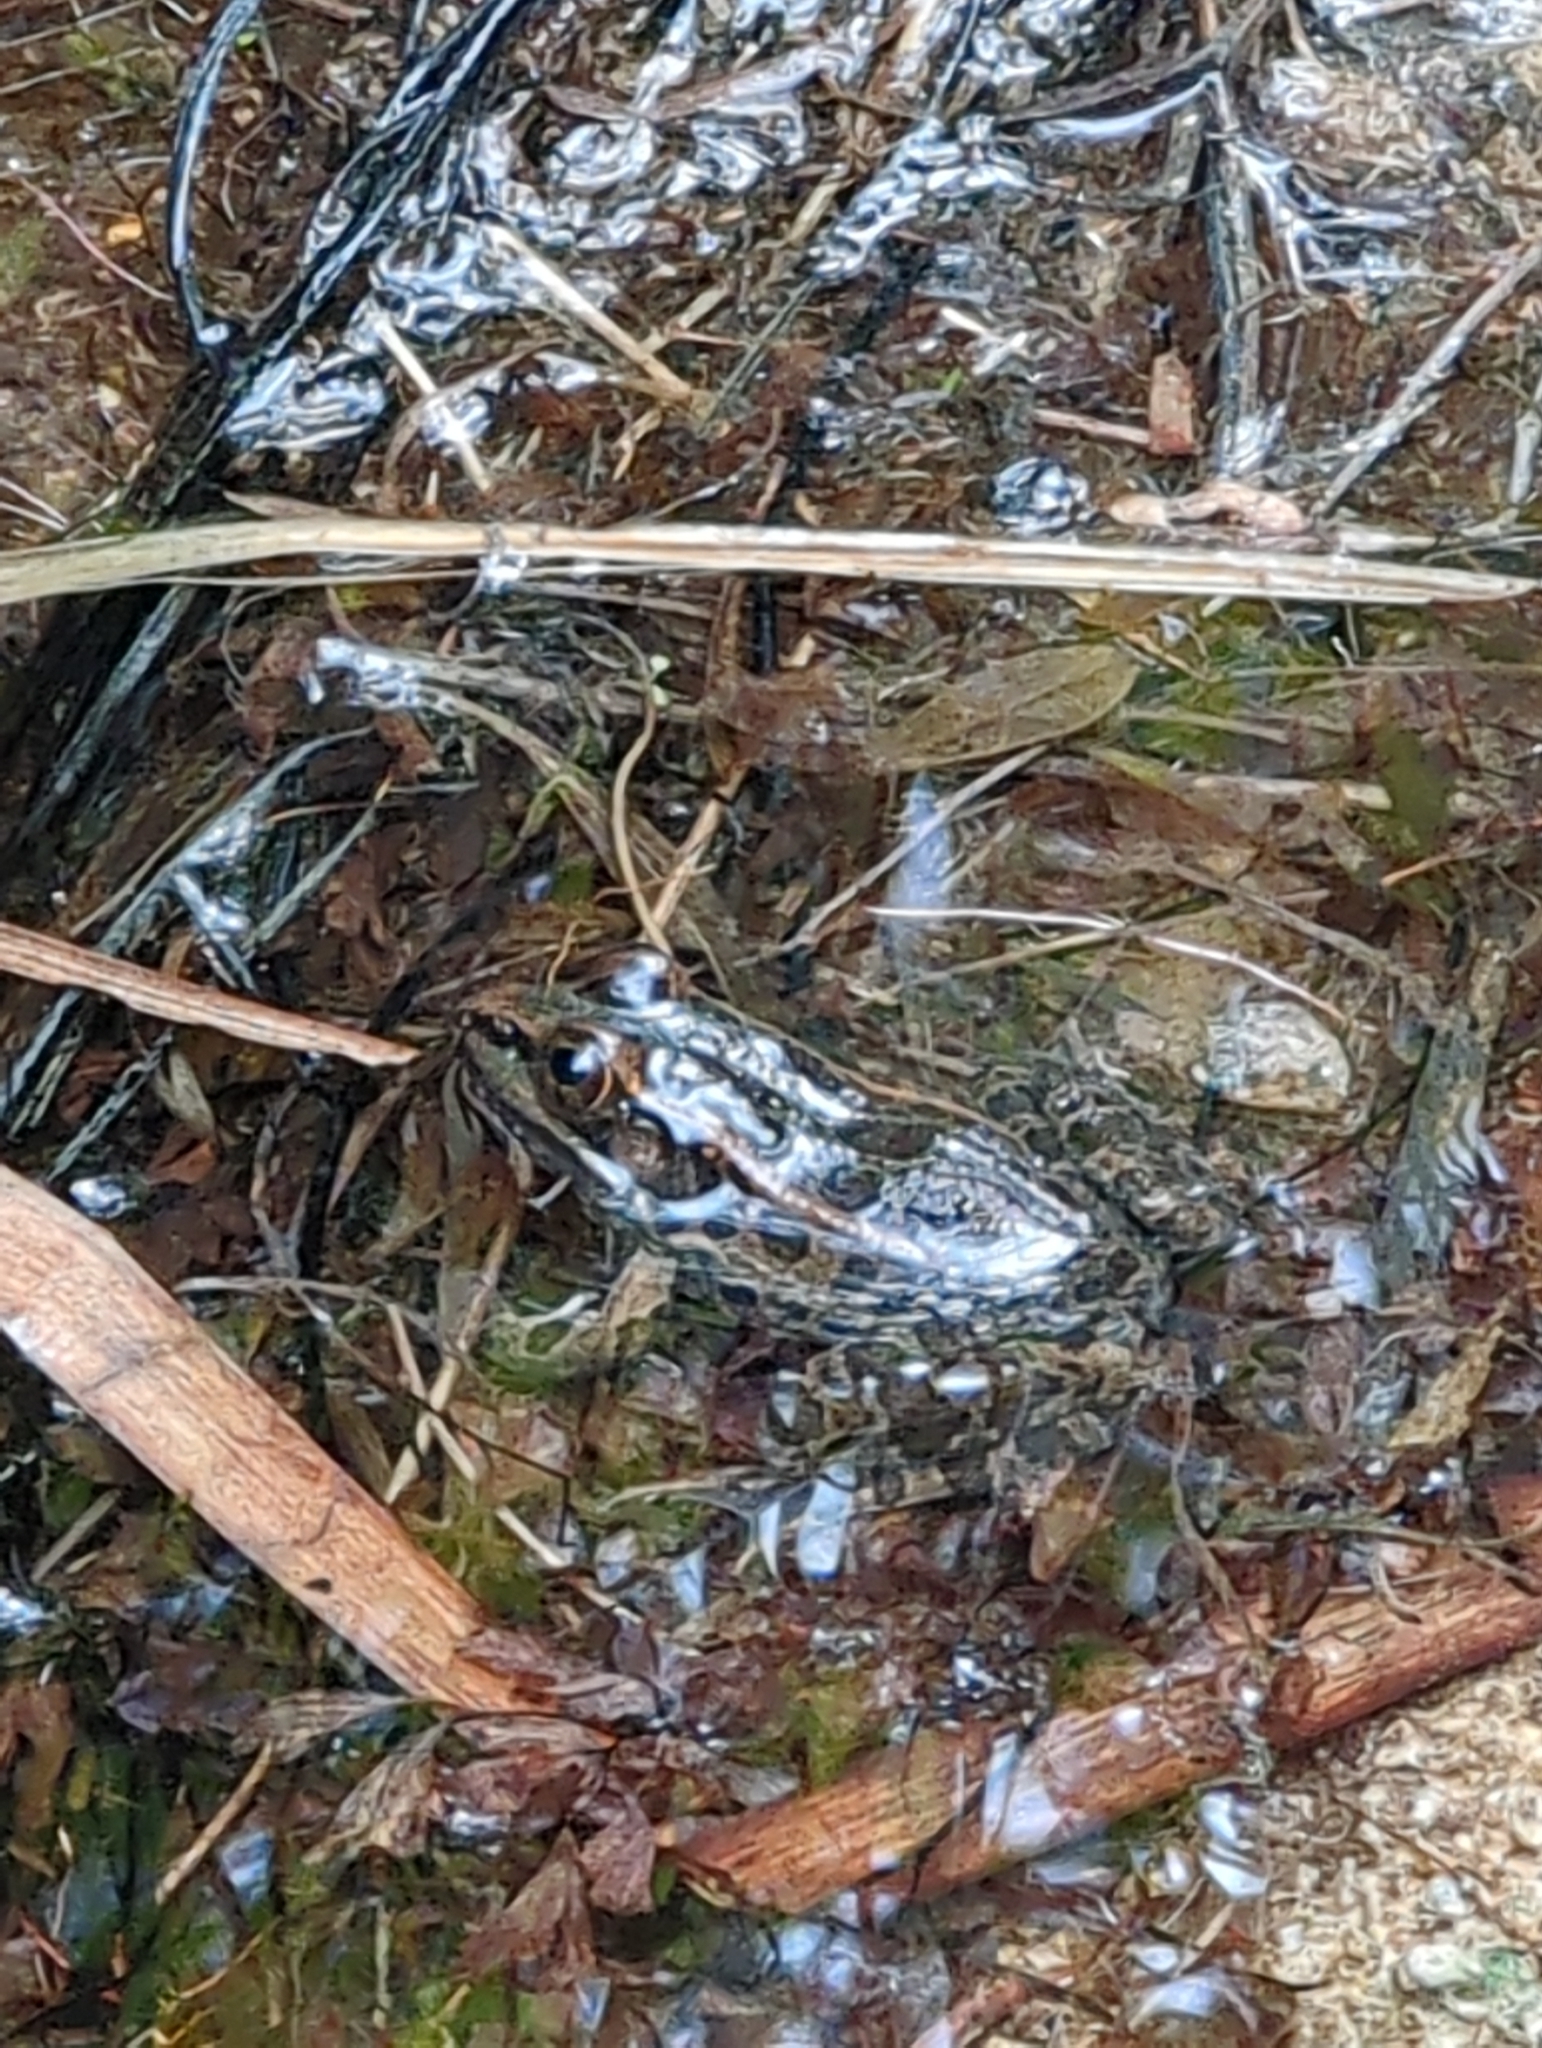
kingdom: Animalia
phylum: Chordata
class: Amphibia
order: Anura
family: Ranidae
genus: Lithobates
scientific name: Lithobates berlandieri
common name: Rio grande leopard frog
